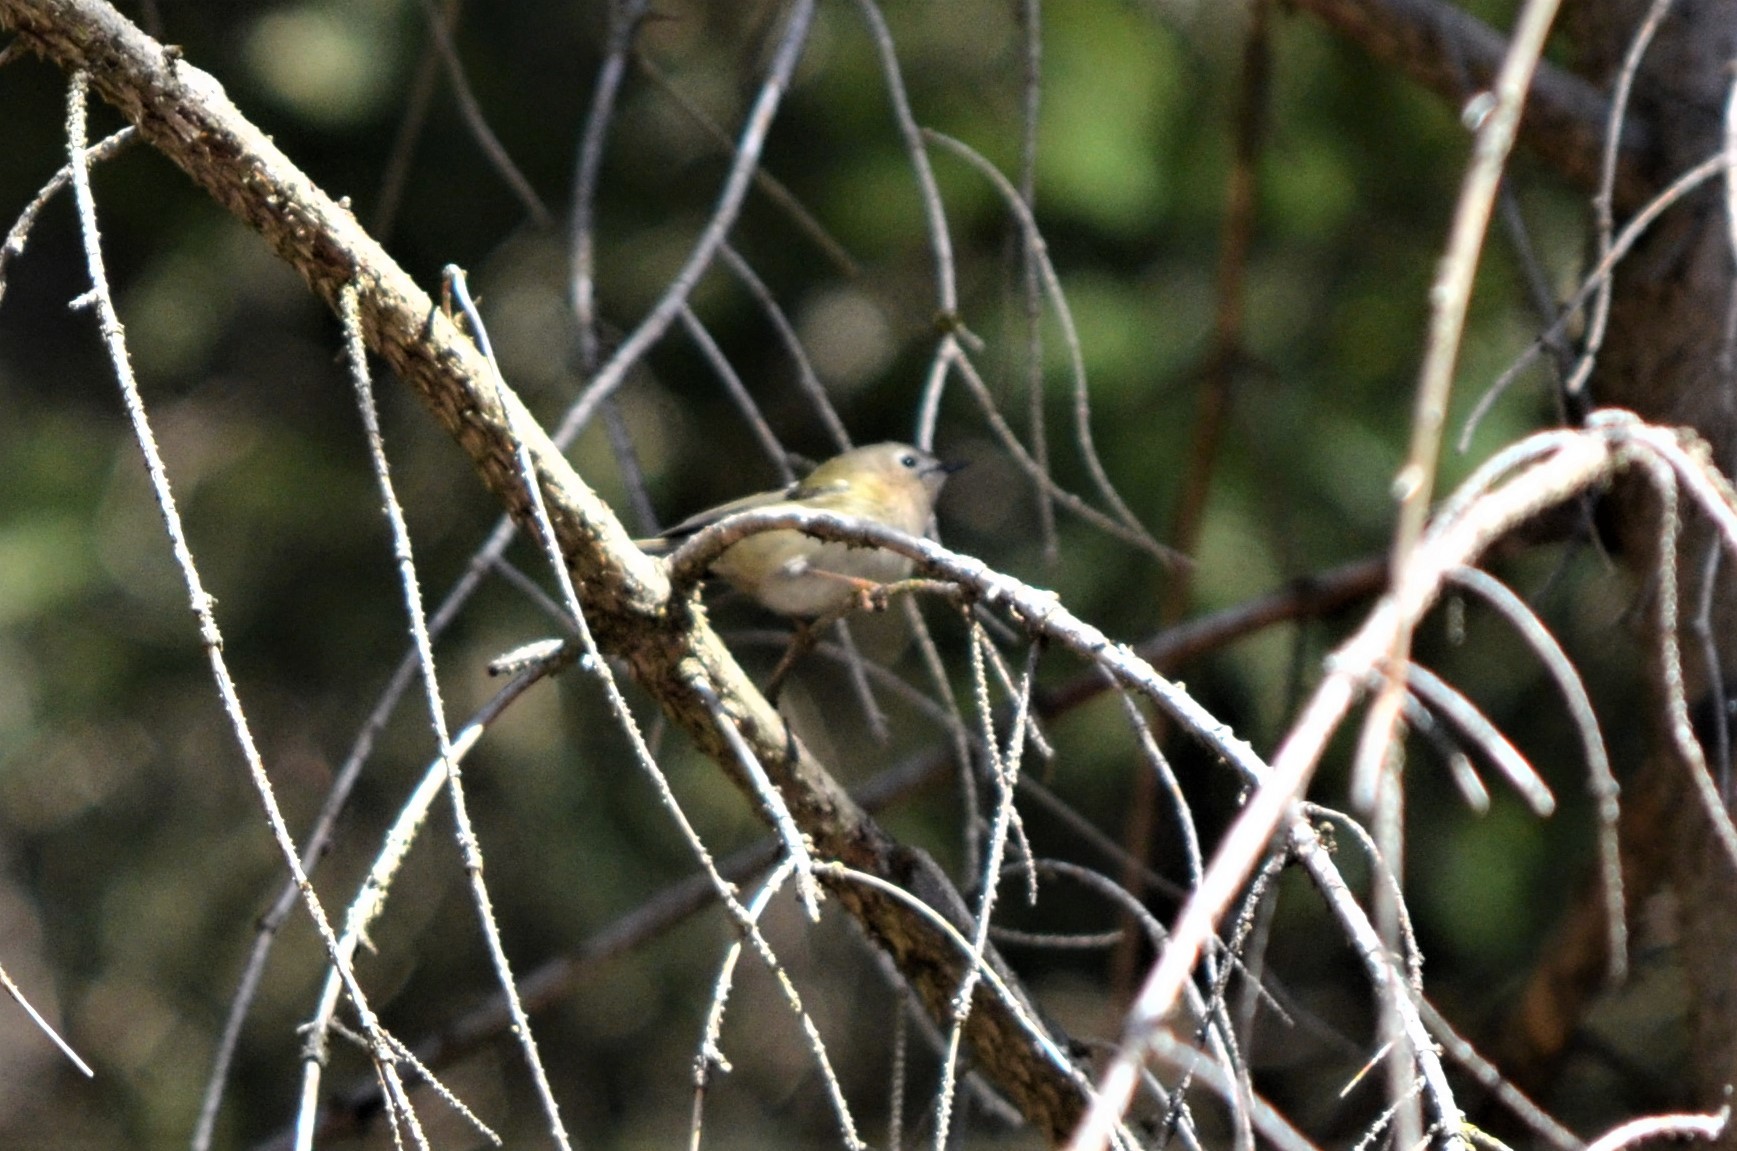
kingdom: Animalia
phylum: Chordata
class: Aves
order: Passeriformes
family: Regulidae
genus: Regulus
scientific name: Regulus regulus
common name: Goldcrest
